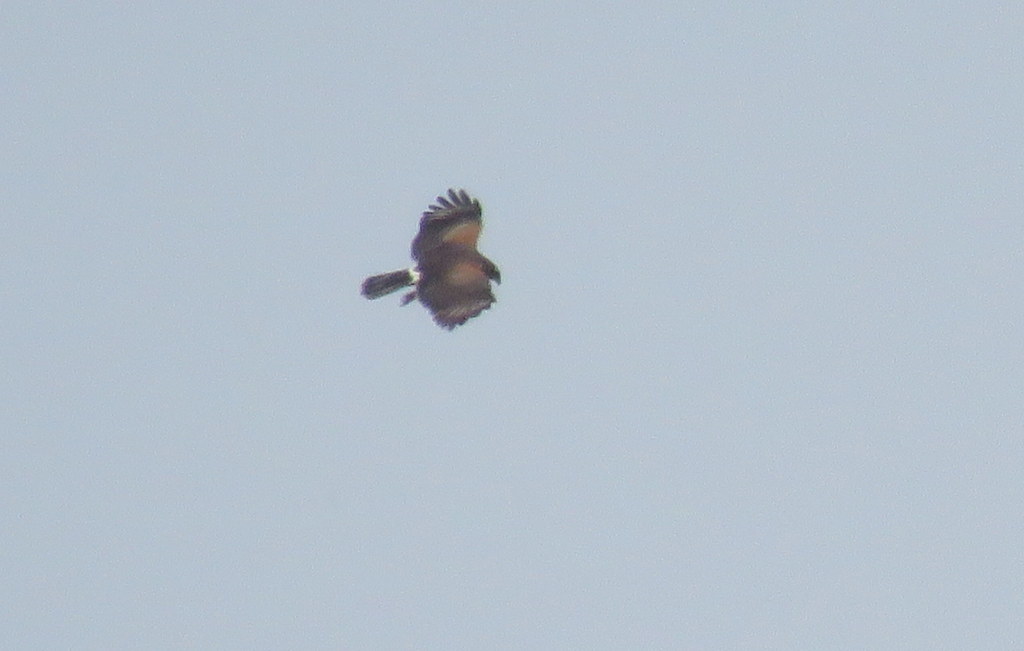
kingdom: Animalia
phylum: Chordata
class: Aves
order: Accipitriformes
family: Accipitridae
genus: Parabuteo
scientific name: Parabuteo unicinctus
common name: Harris's hawk
